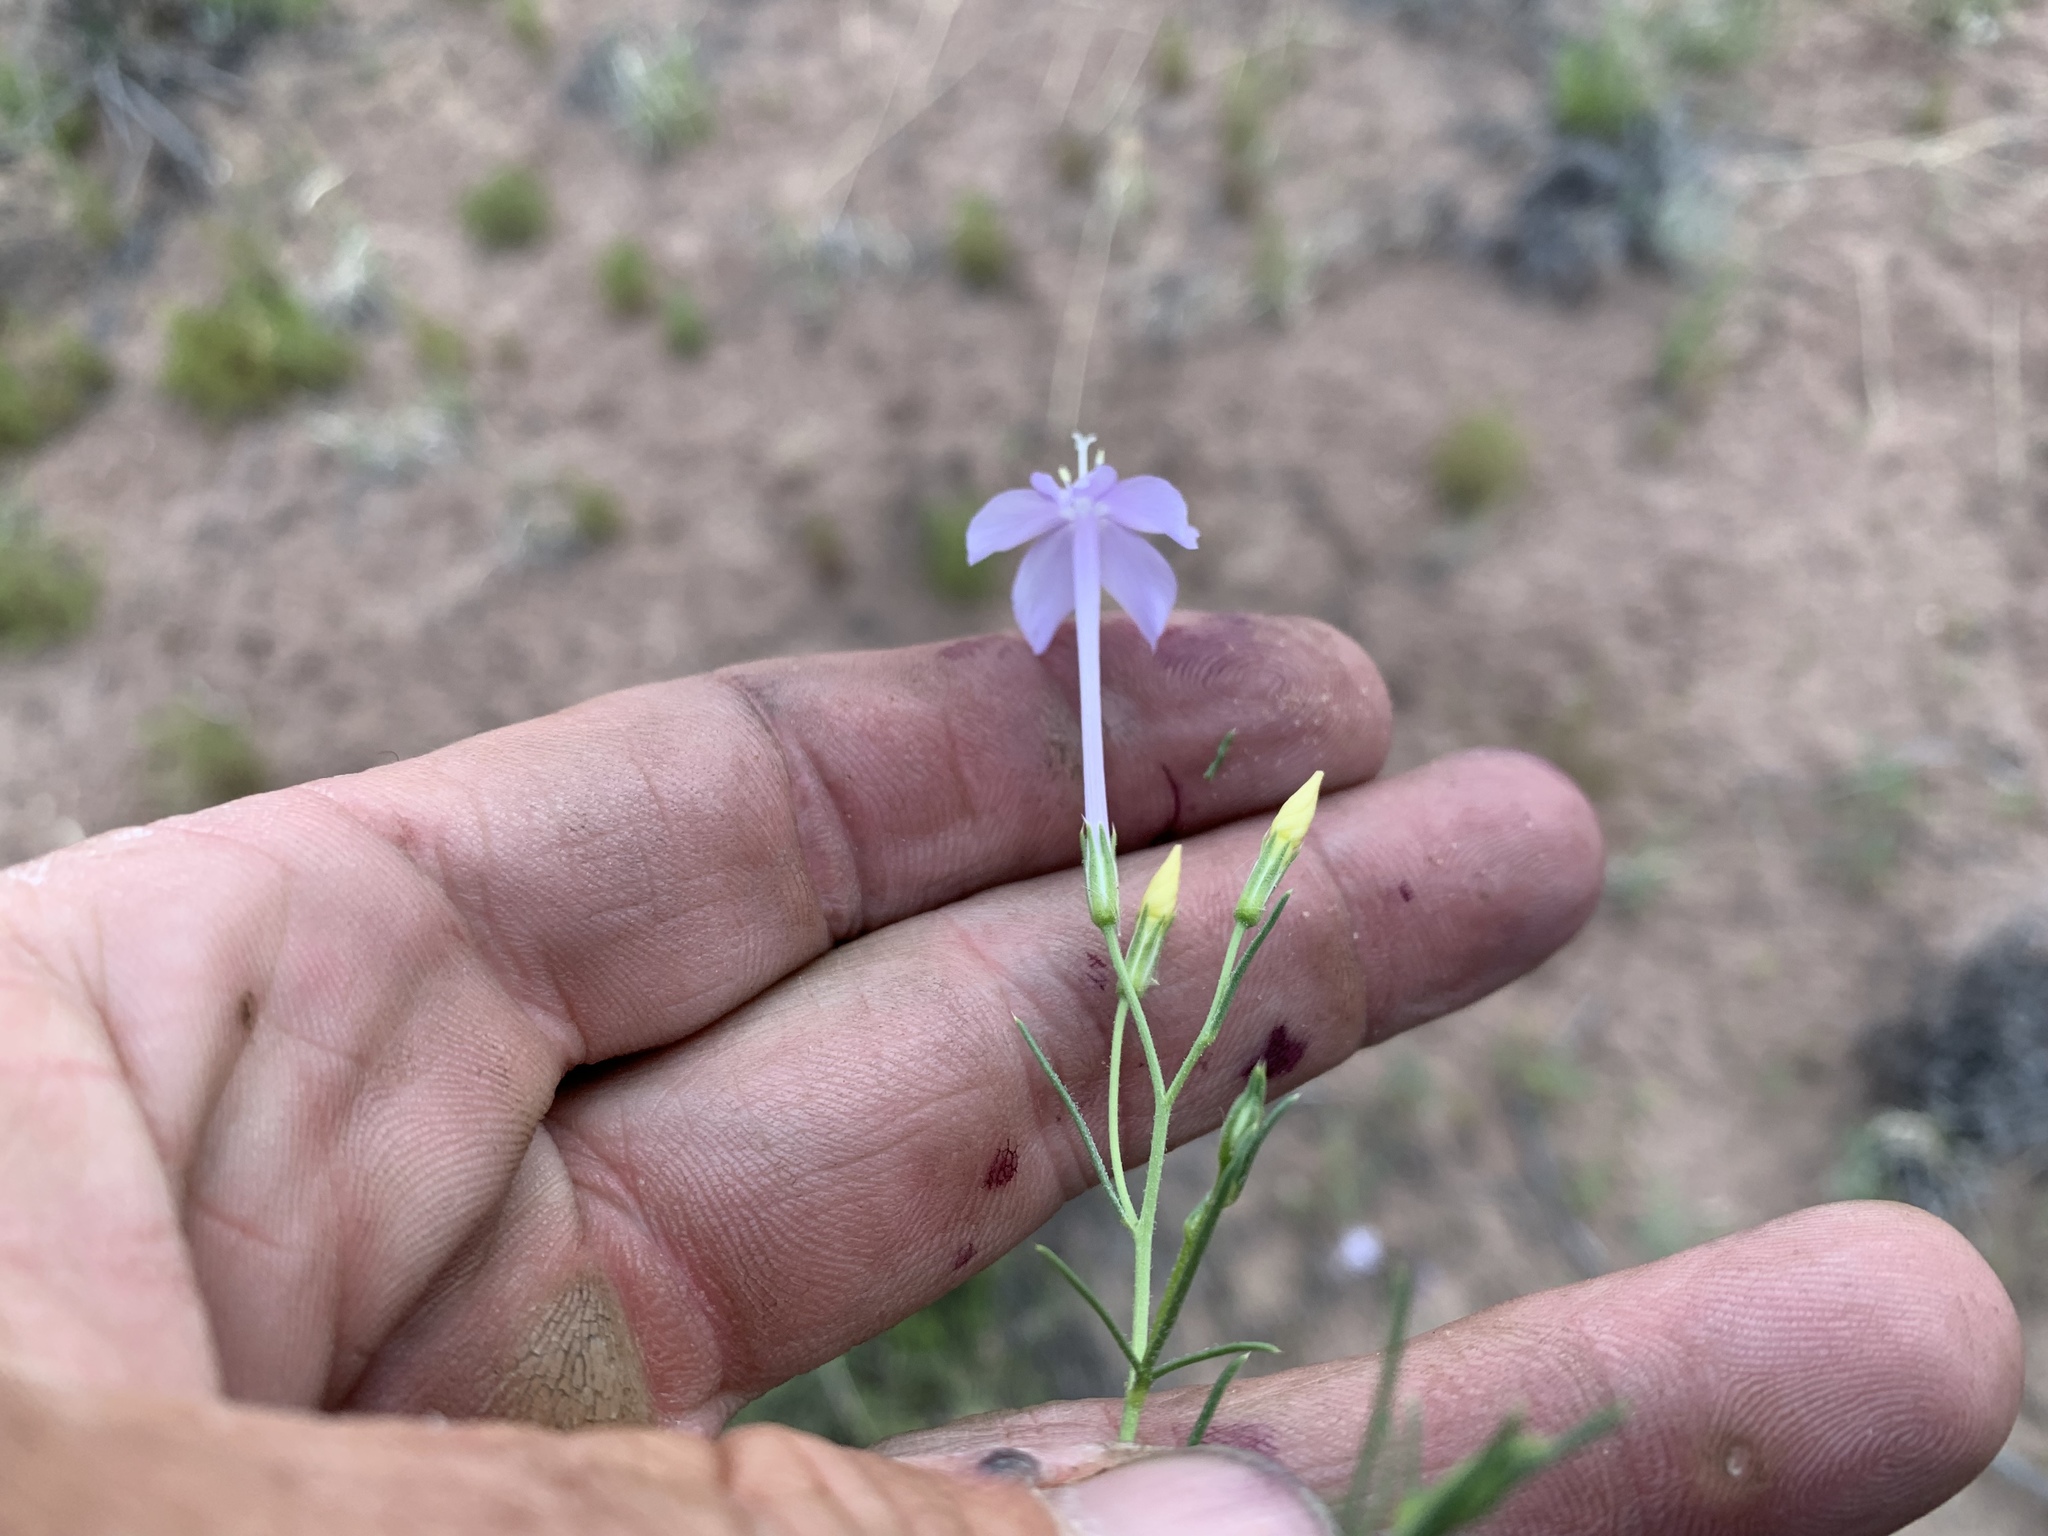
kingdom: Plantae
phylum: Tracheophyta
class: Magnoliopsida
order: Ericales
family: Polemoniaceae
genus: Ipomopsis
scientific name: Ipomopsis longiflora
